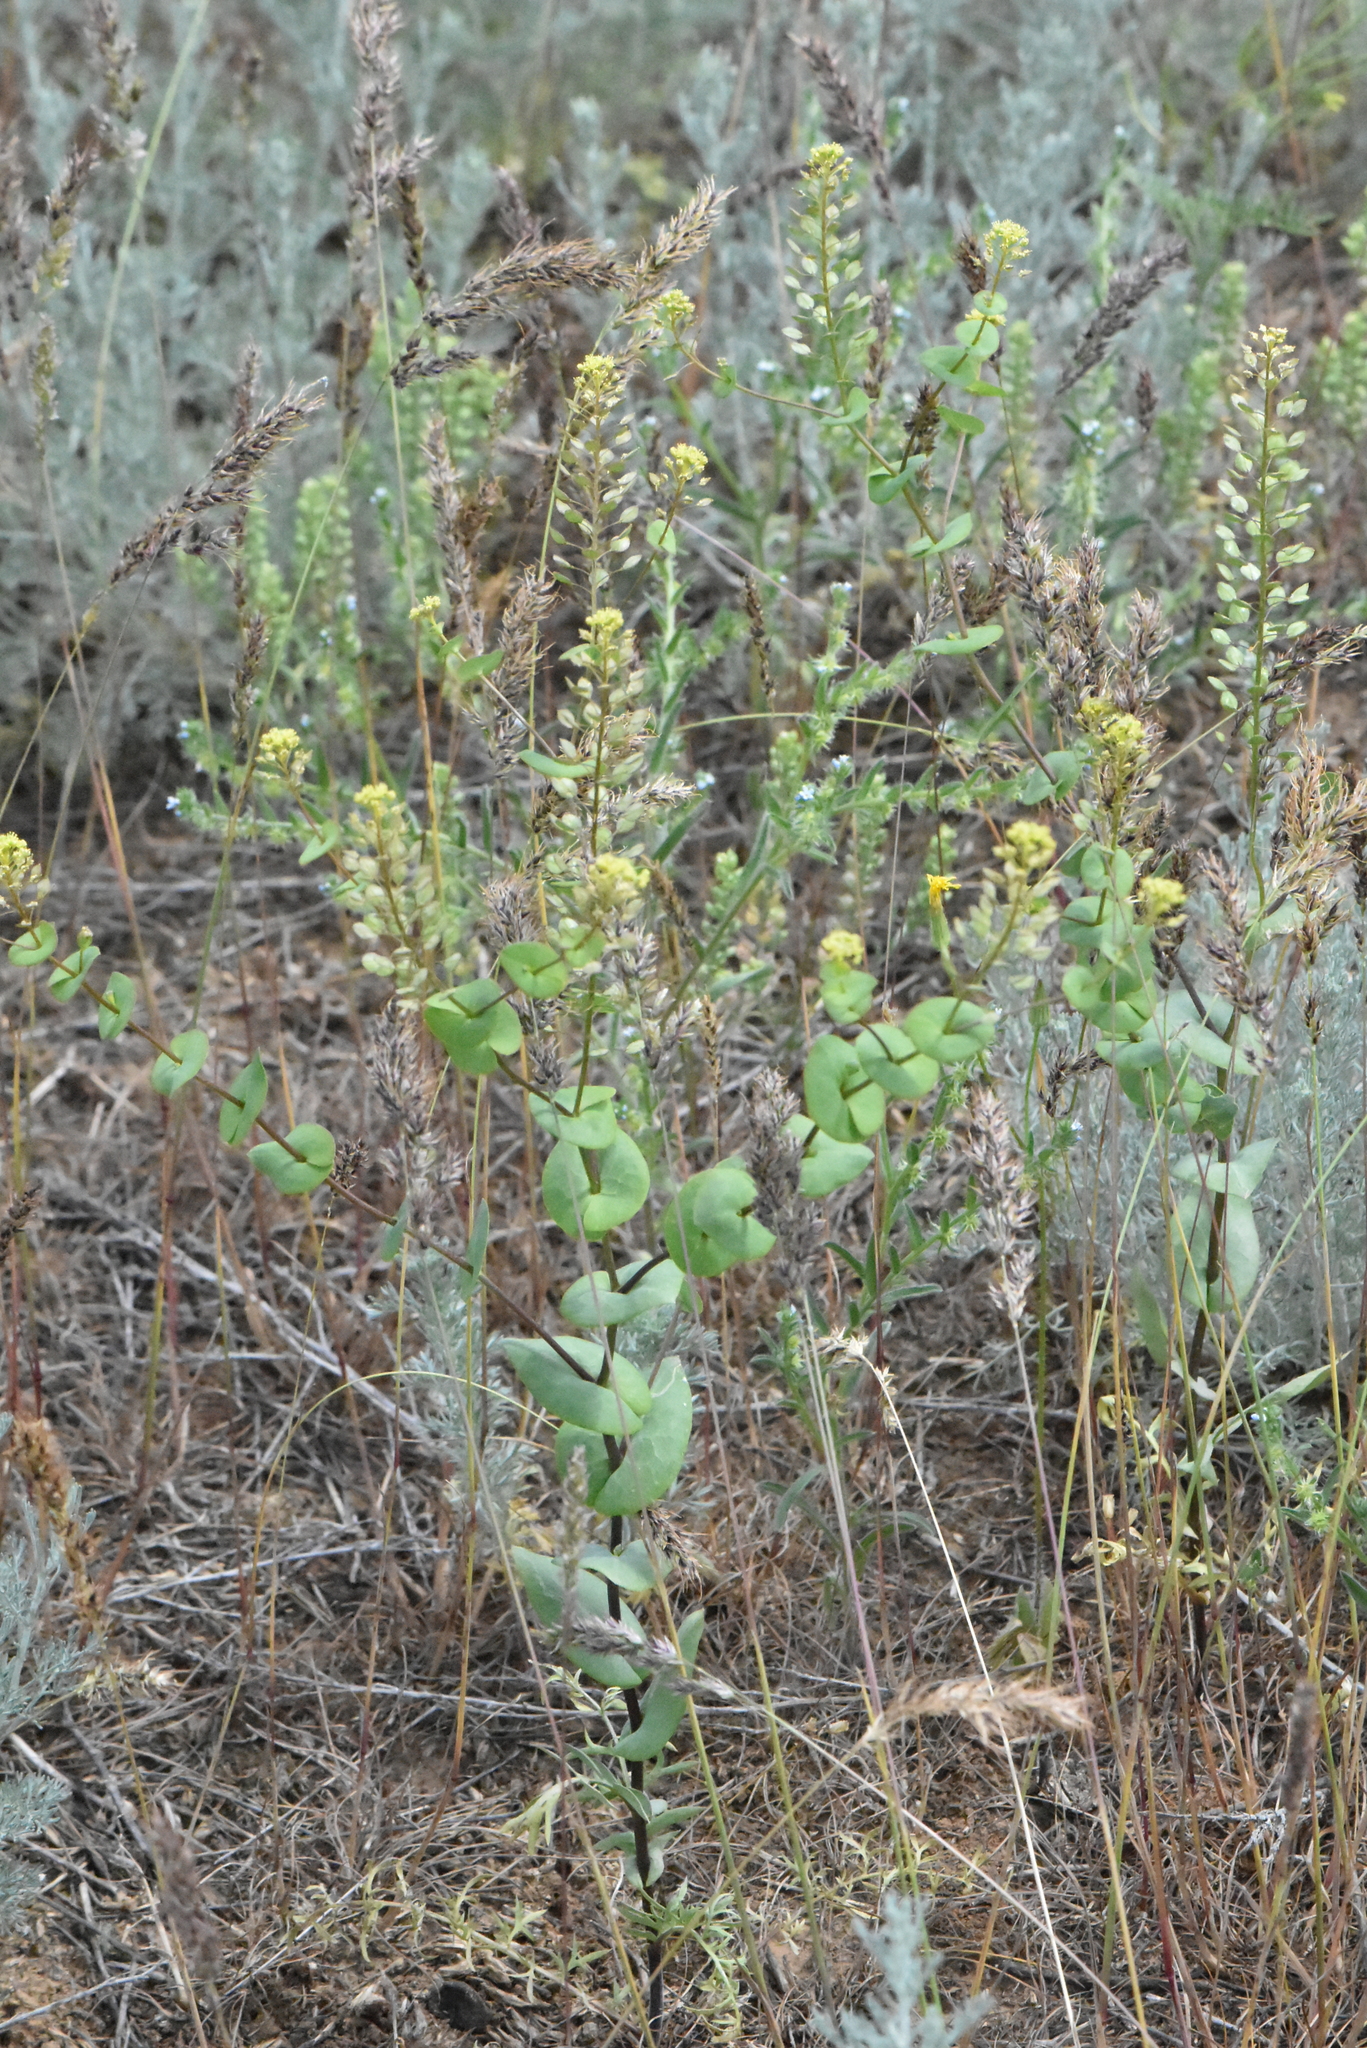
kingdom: Plantae
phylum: Tracheophyta
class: Magnoliopsida
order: Brassicales
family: Brassicaceae
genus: Lepidium
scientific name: Lepidium perfoliatum
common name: Perfoliate pepperwort
